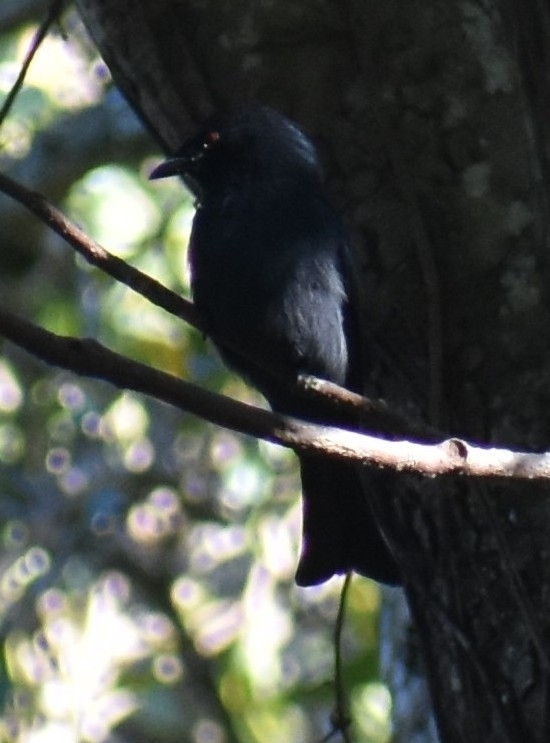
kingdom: Animalia
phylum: Chordata
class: Aves
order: Passeriformes
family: Dicruridae
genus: Dicrurus
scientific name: Dicrurus ludwigii
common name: Square-tailed drongo
